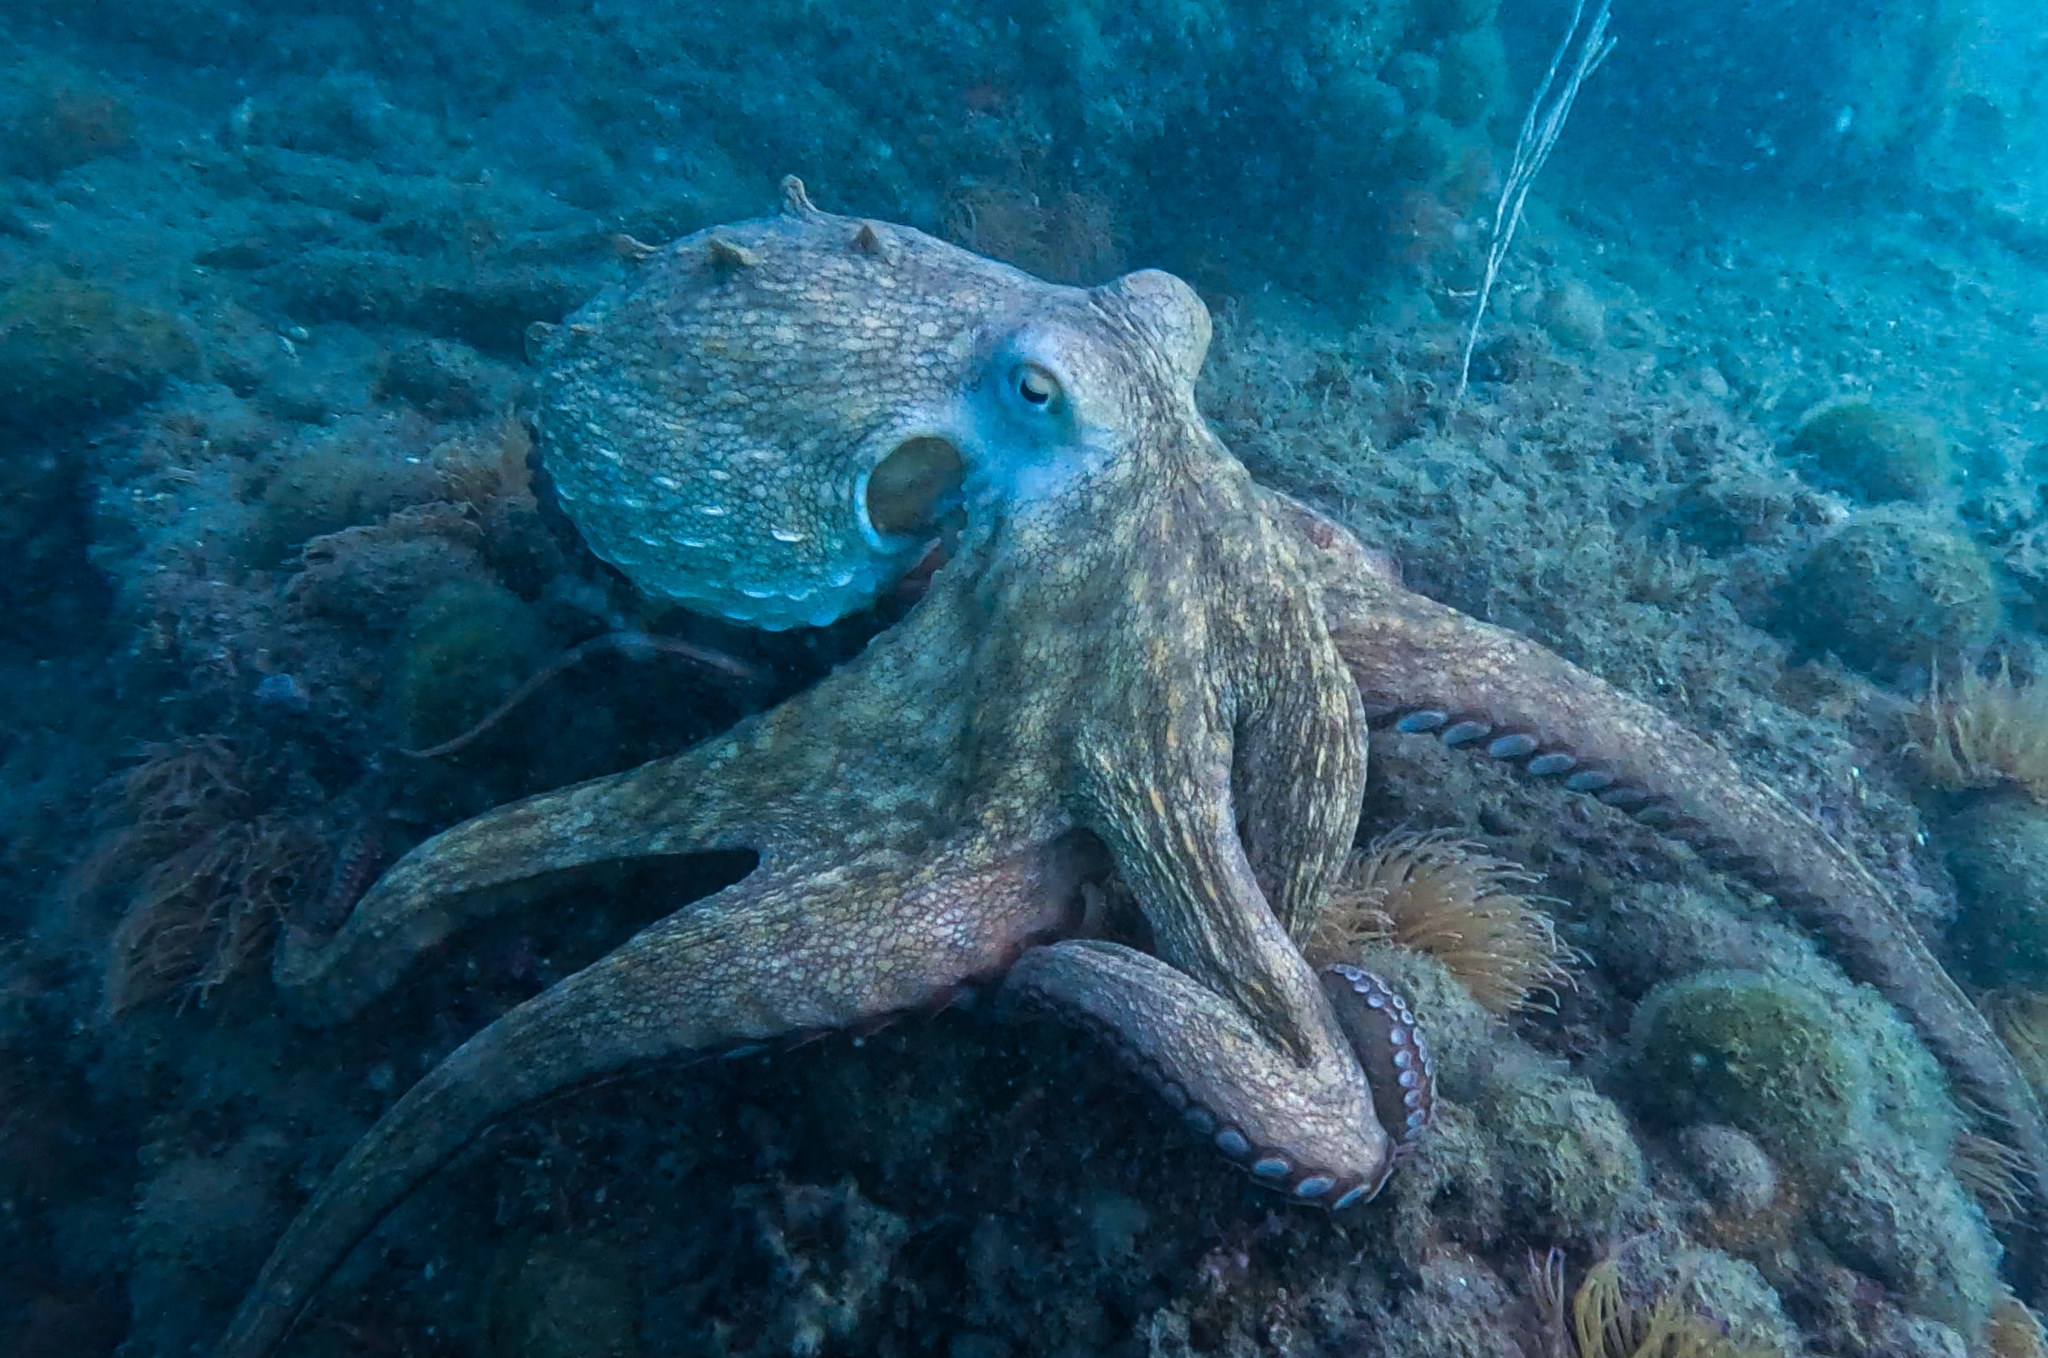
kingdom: Animalia
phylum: Mollusca
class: Cephalopoda
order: Octopoda
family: Octopodidae
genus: Octopus
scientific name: Octopus vulgaris
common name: Common octopus
